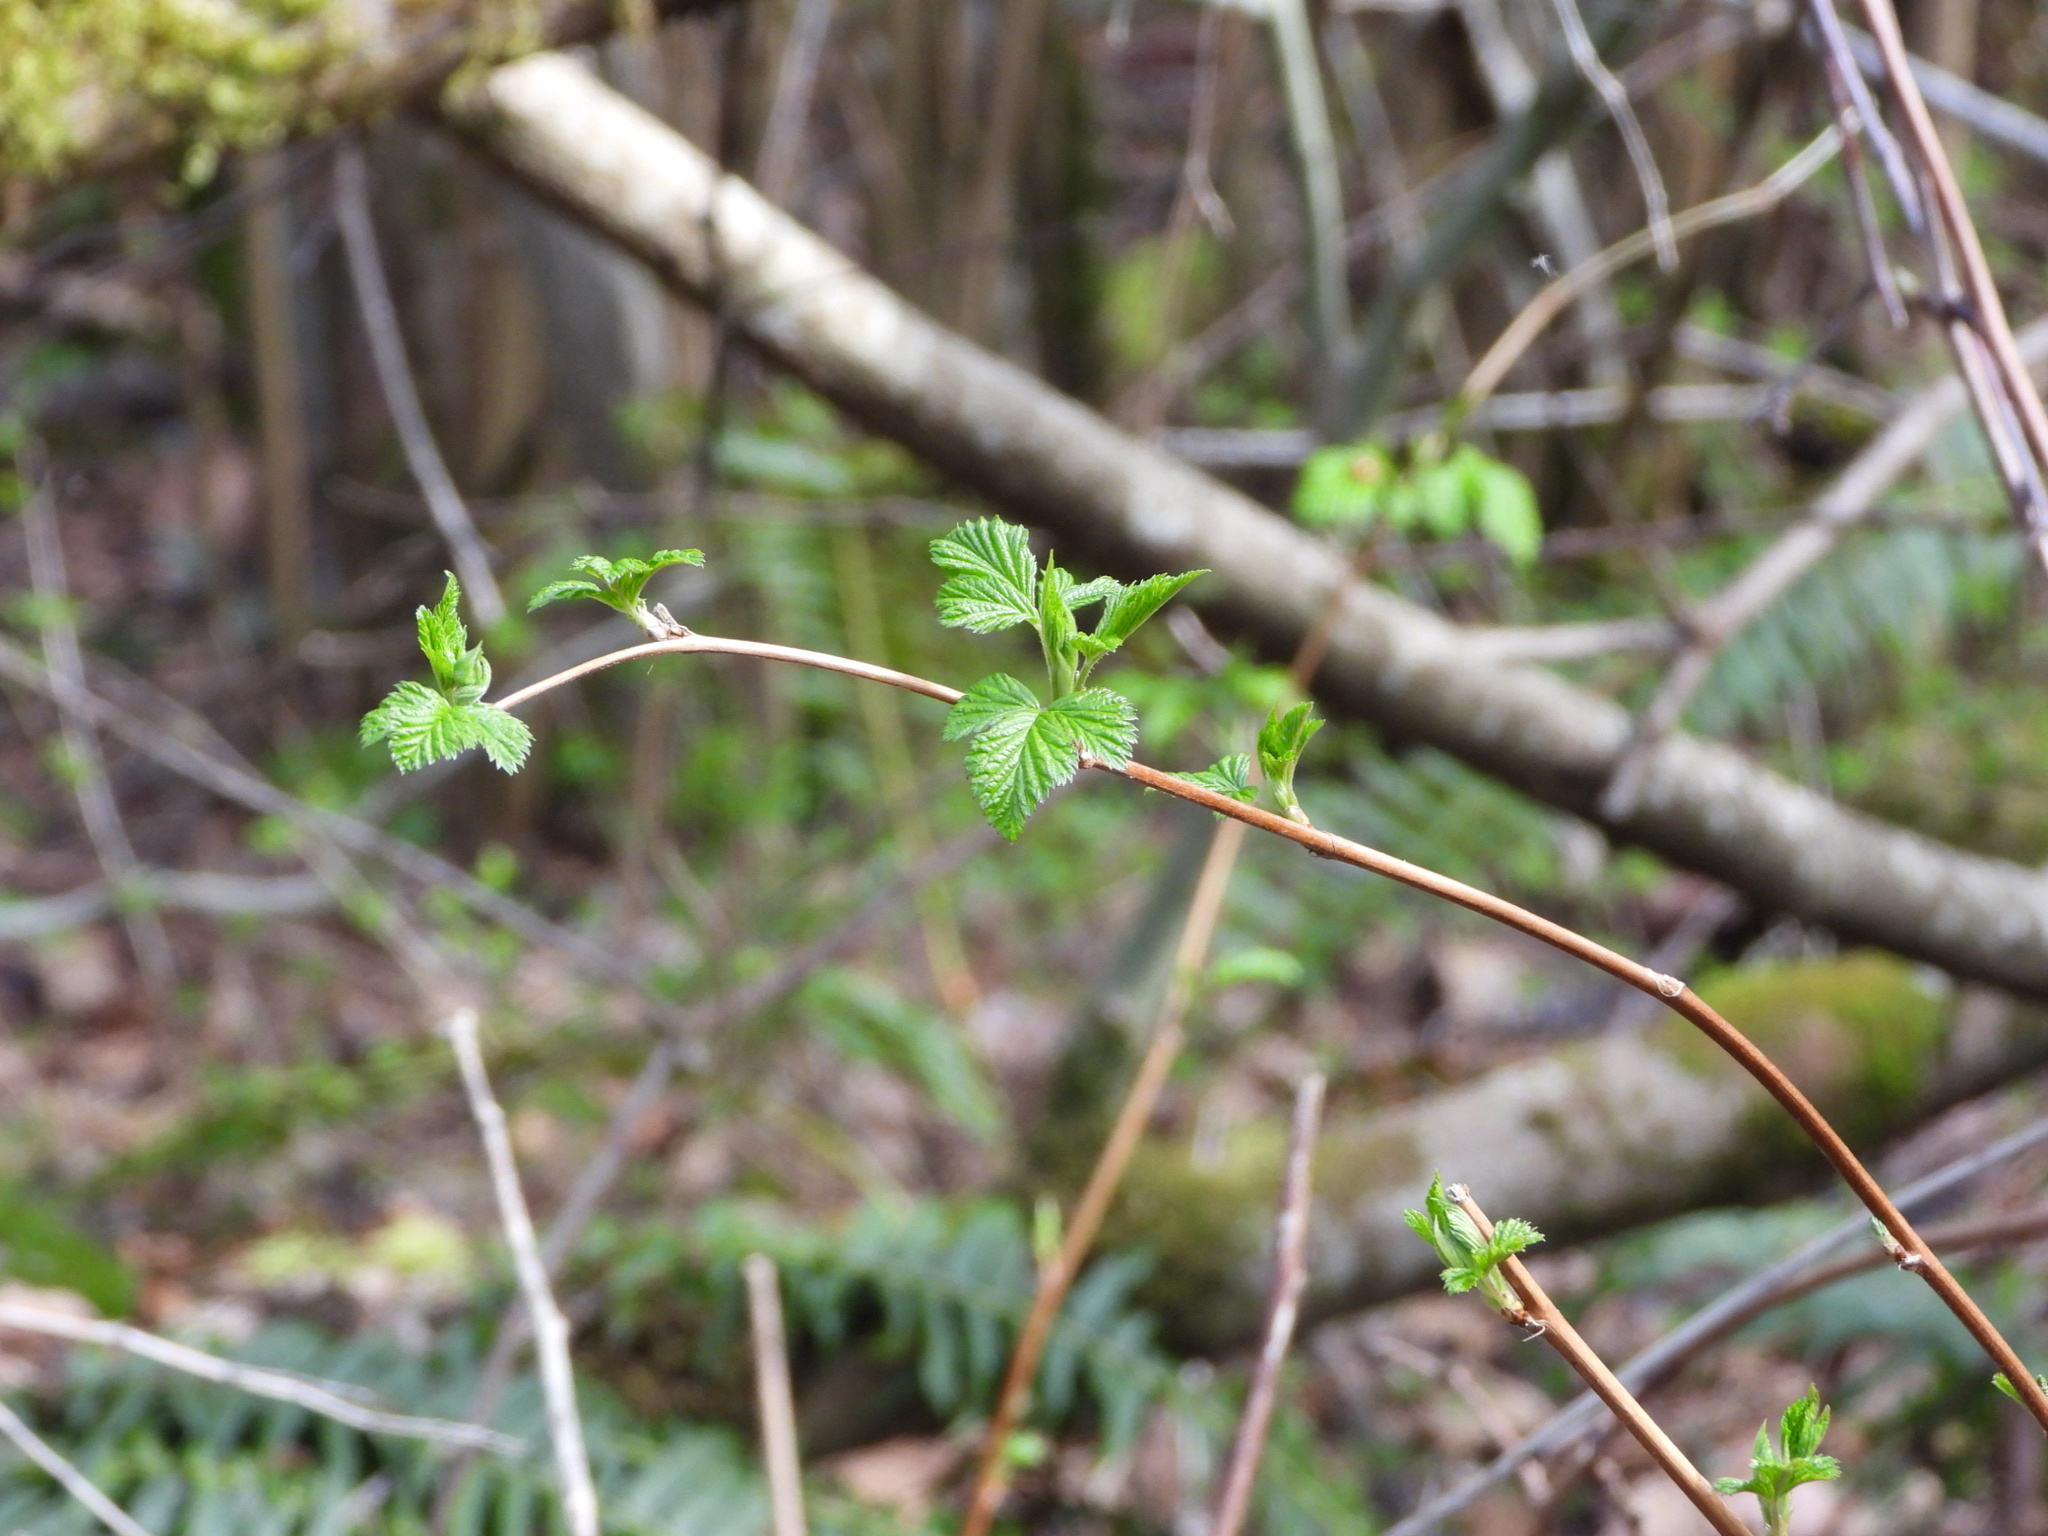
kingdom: Plantae
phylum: Tracheophyta
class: Magnoliopsida
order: Rosales
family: Rosaceae
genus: Rubus
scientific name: Rubus spectabilis
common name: Salmonberry
